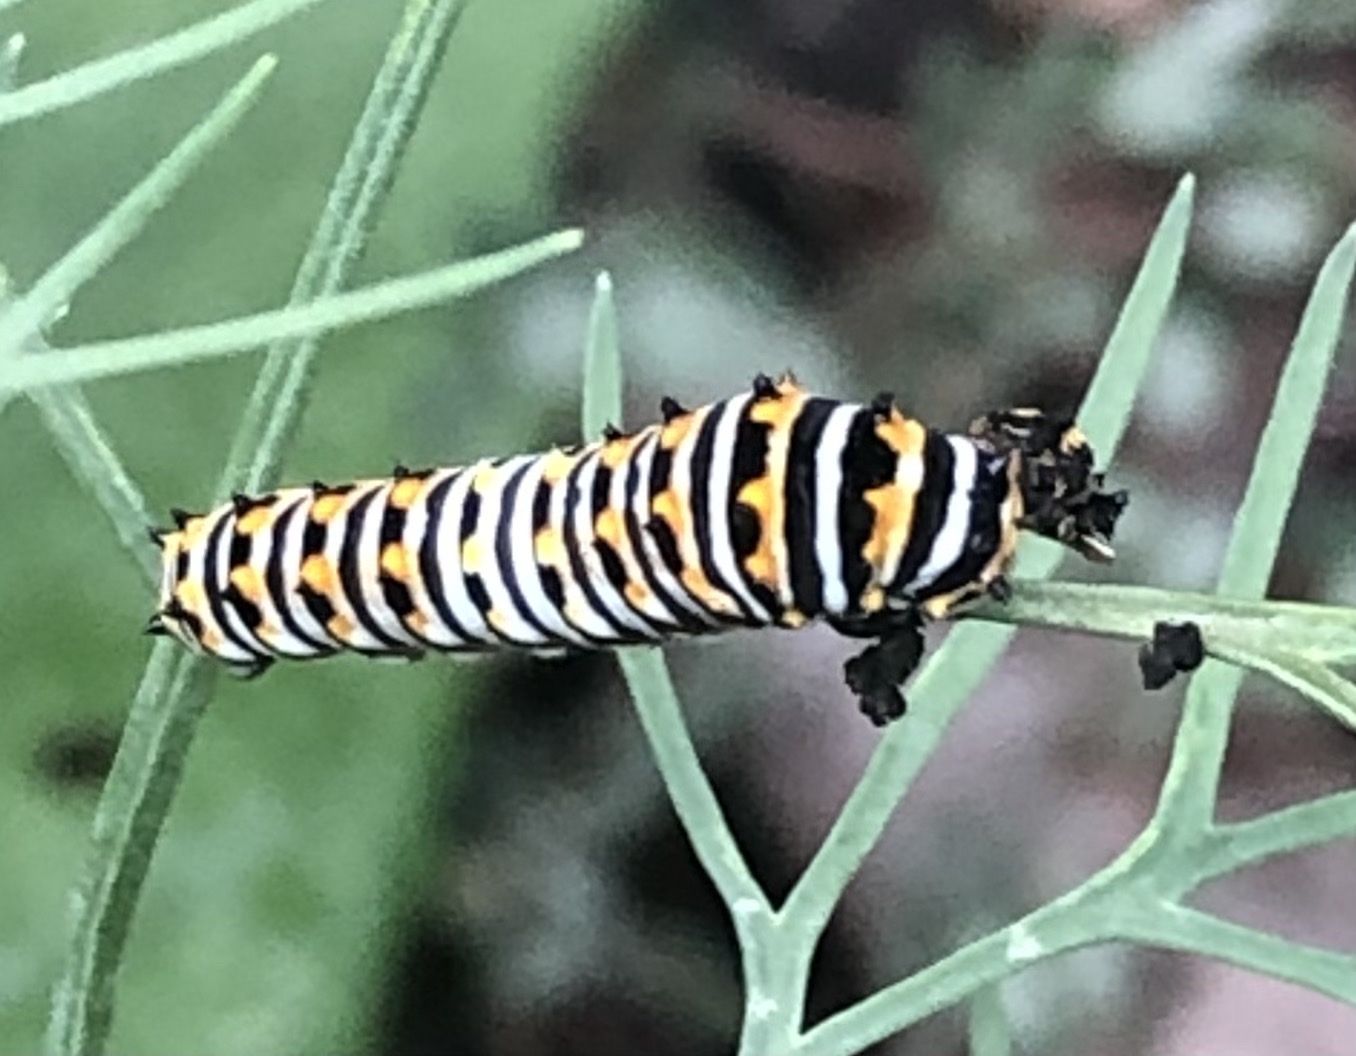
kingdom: Animalia
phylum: Arthropoda
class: Insecta
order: Lepidoptera
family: Papilionidae
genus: Papilio
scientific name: Papilio polyxenes
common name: Black swallowtail
